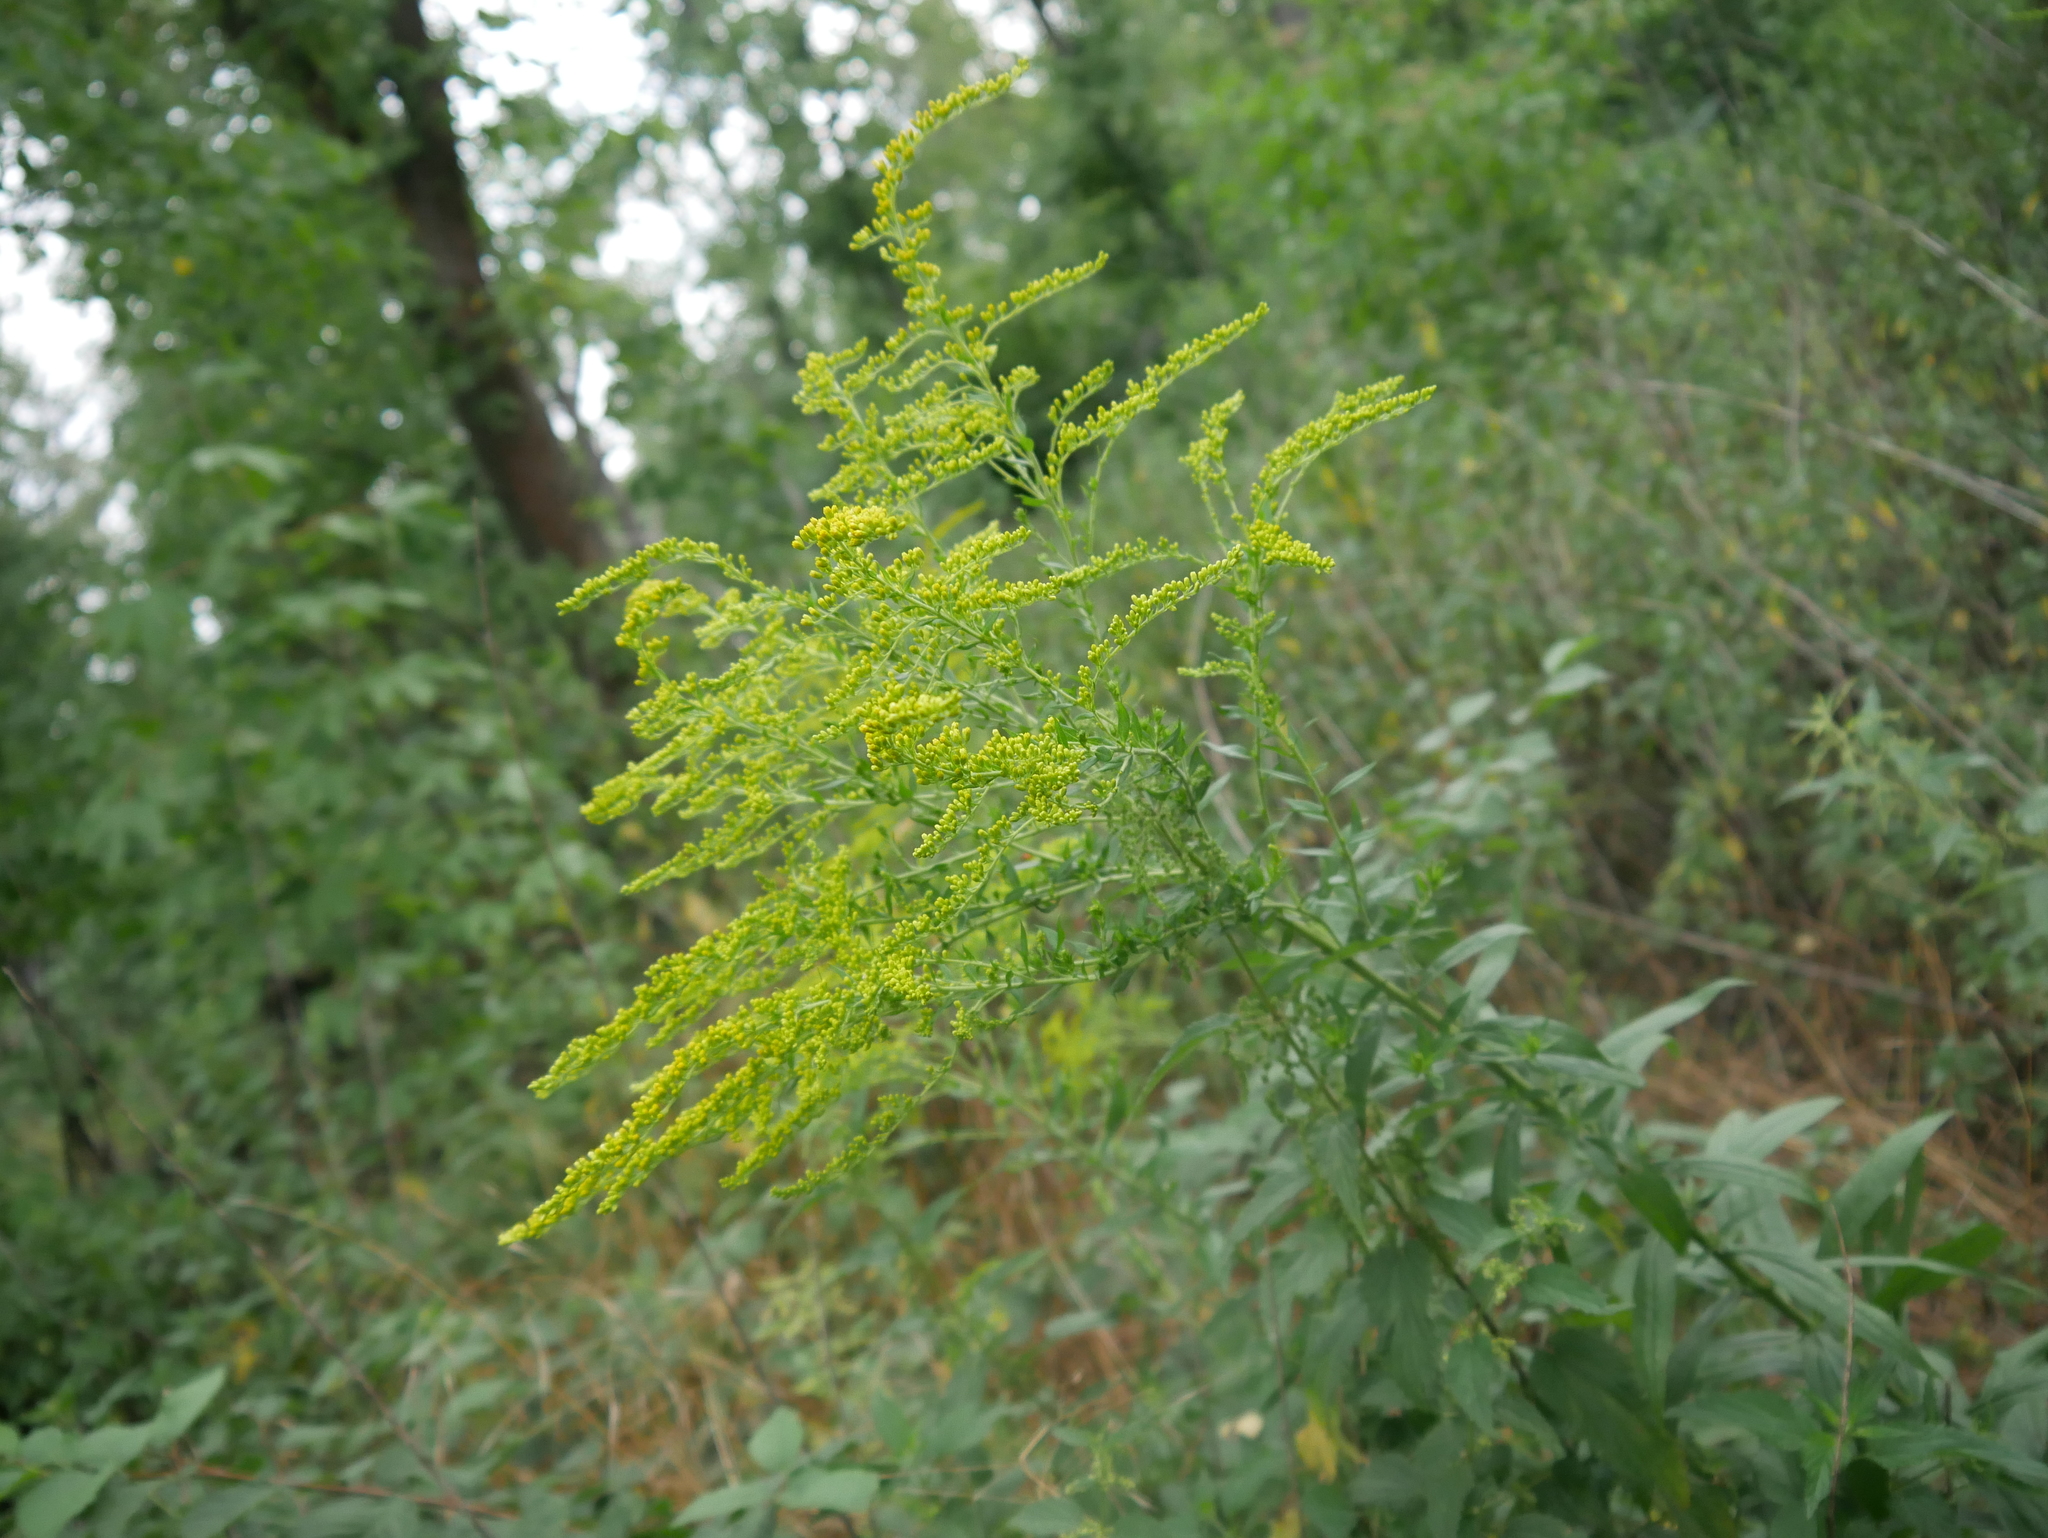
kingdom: Plantae
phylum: Tracheophyta
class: Magnoliopsida
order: Asterales
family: Asteraceae
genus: Solidago
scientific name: Solidago canadensis
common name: Canada goldenrod
